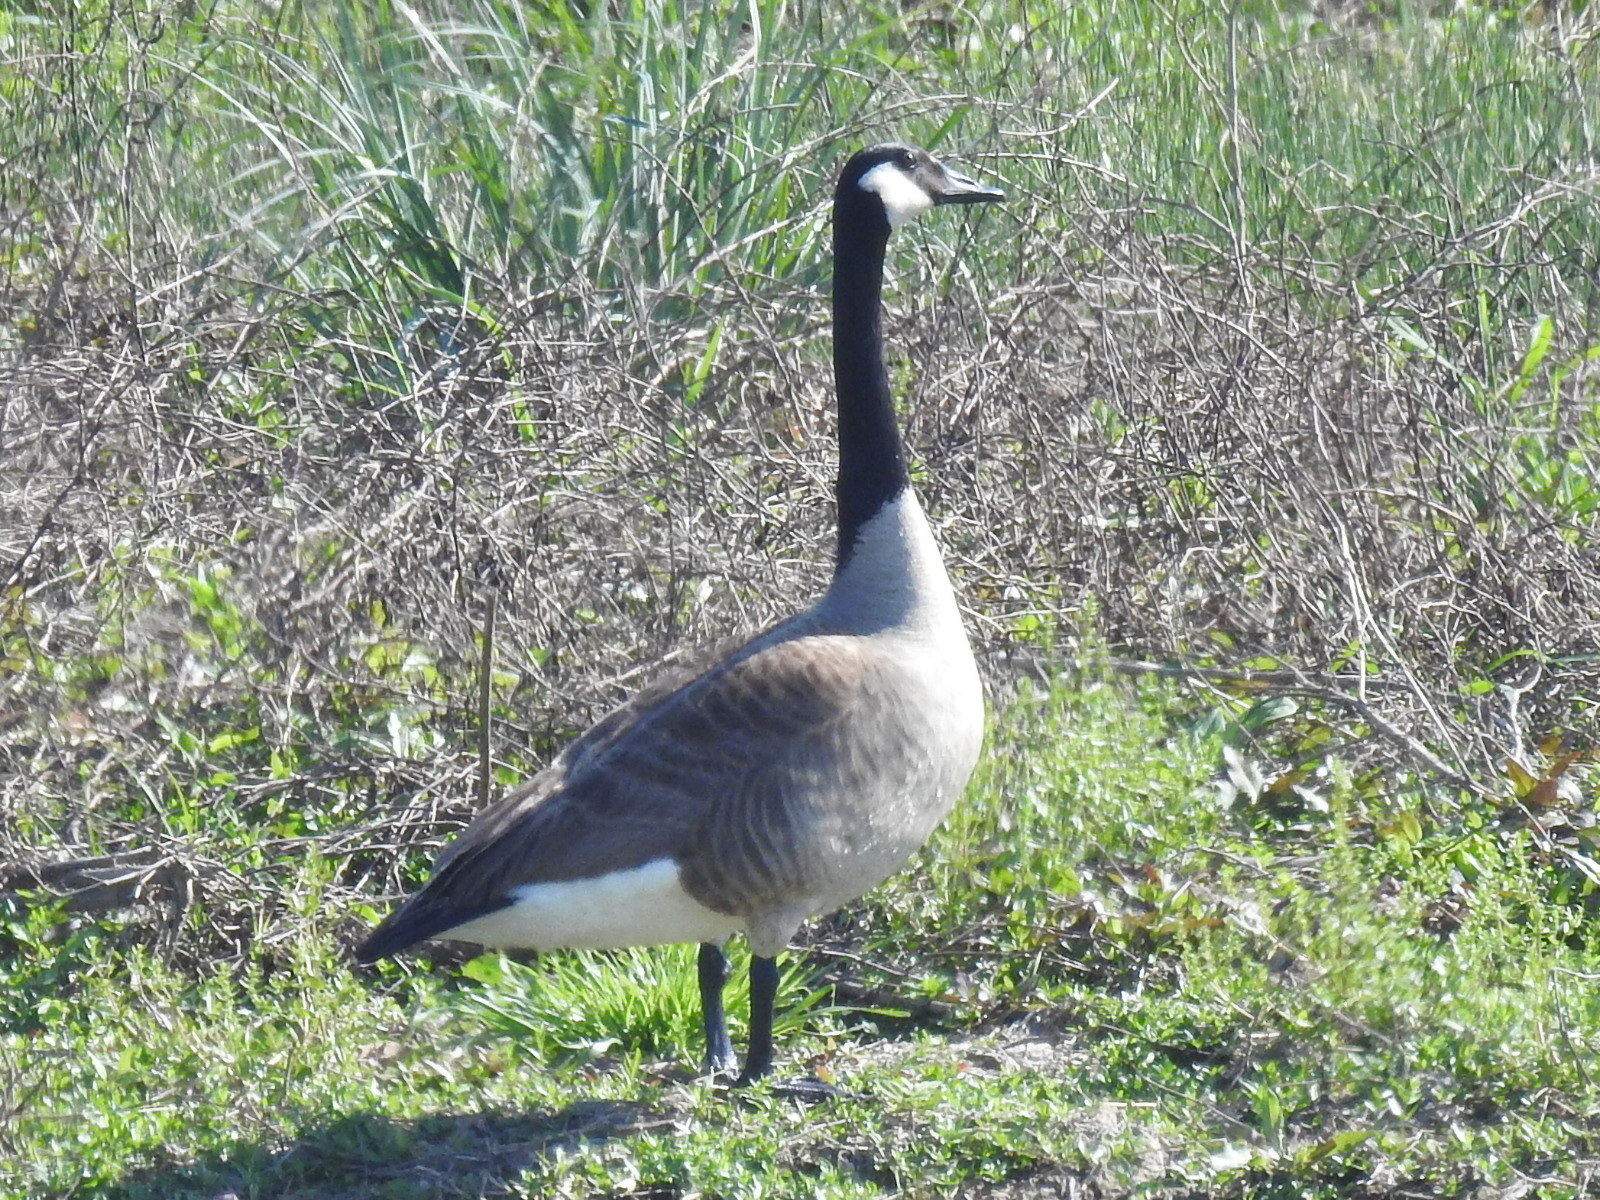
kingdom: Animalia
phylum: Chordata
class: Aves
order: Anseriformes
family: Anatidae
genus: Branta
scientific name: Branta canadensis
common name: Canada goose
